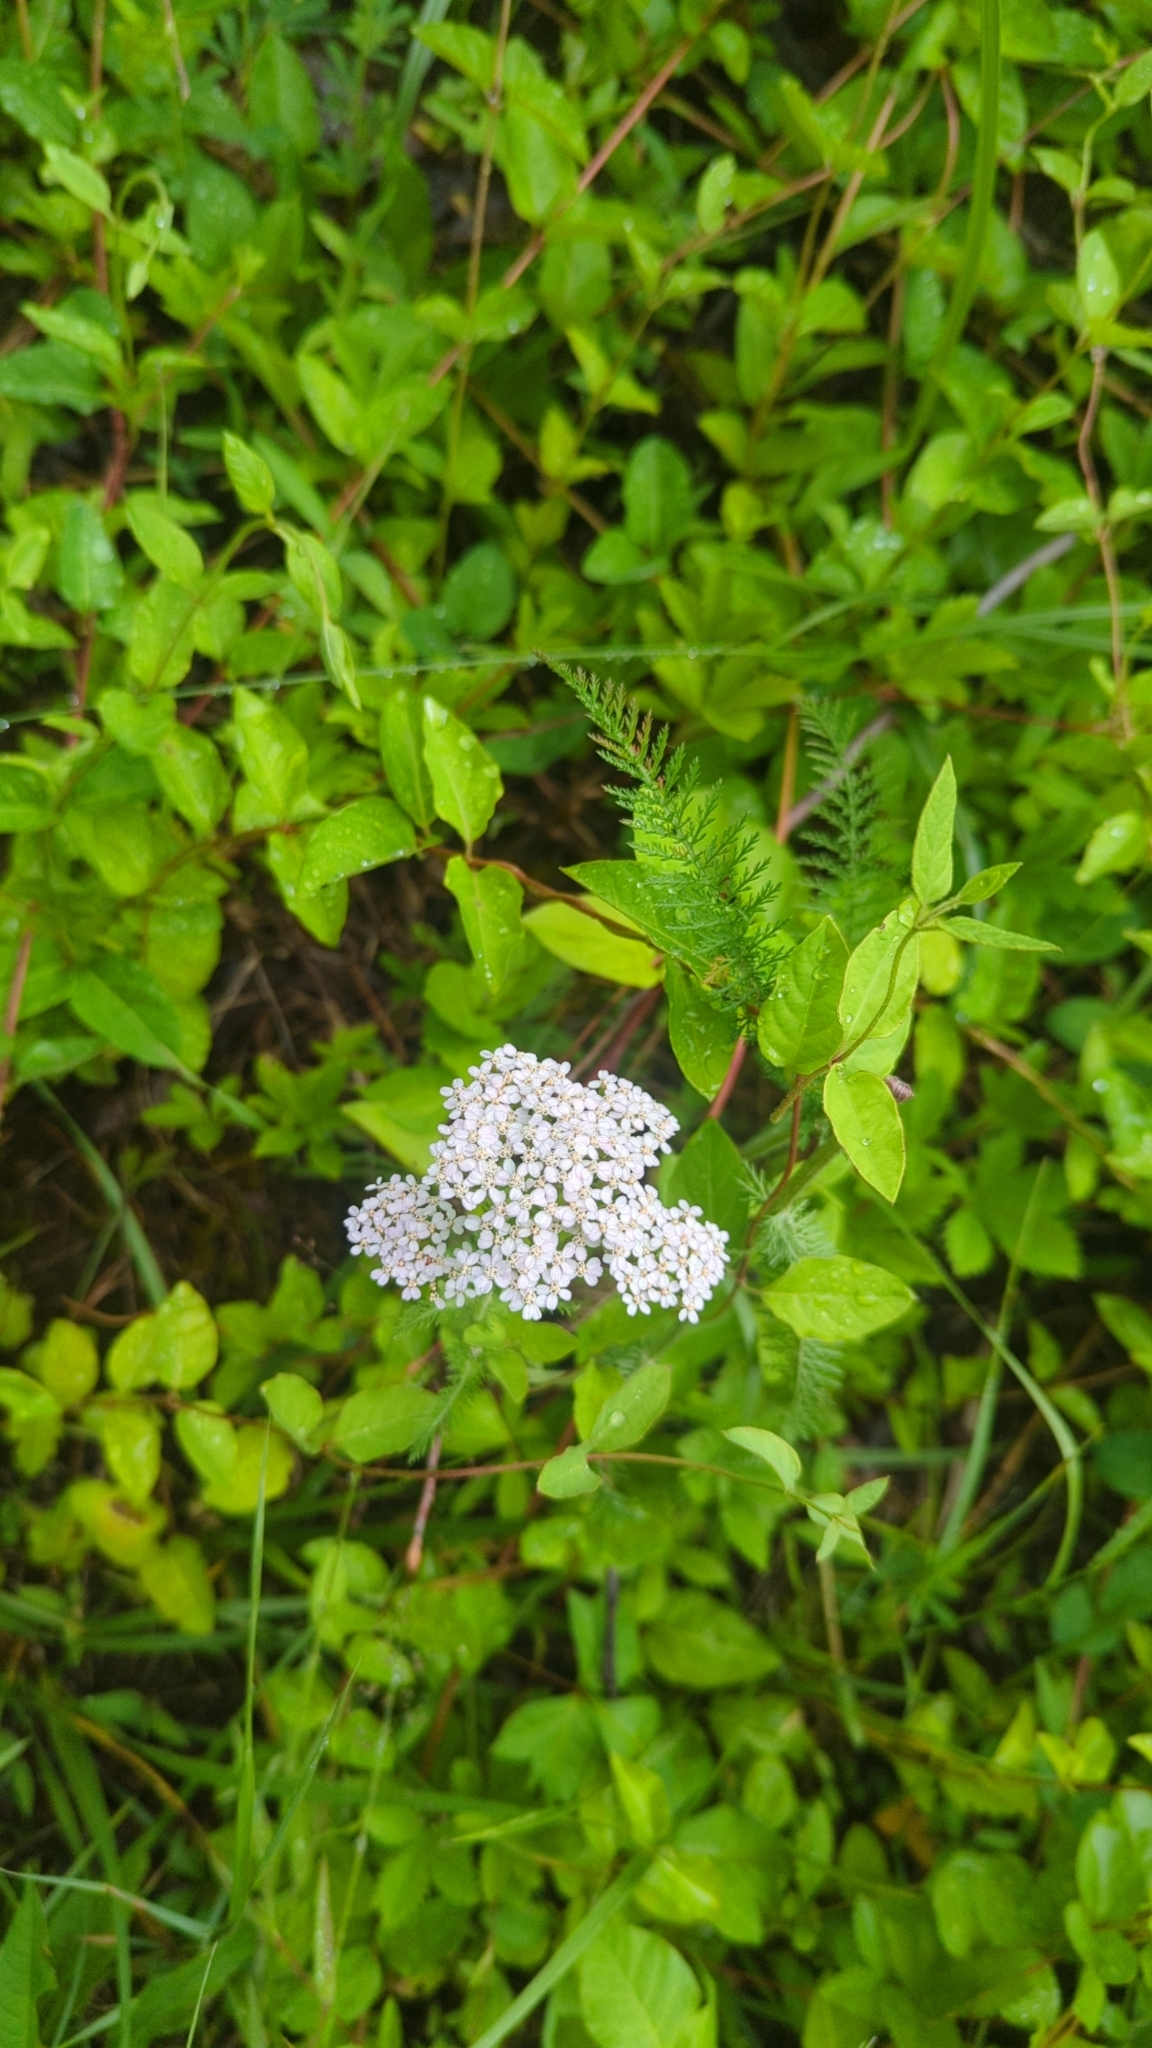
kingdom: Plantae
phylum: Tracheophyta
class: Magnoliopsida
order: Asterales
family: Asteraceae
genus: Achillea
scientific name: Achillea millefolium
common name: Yarrow
